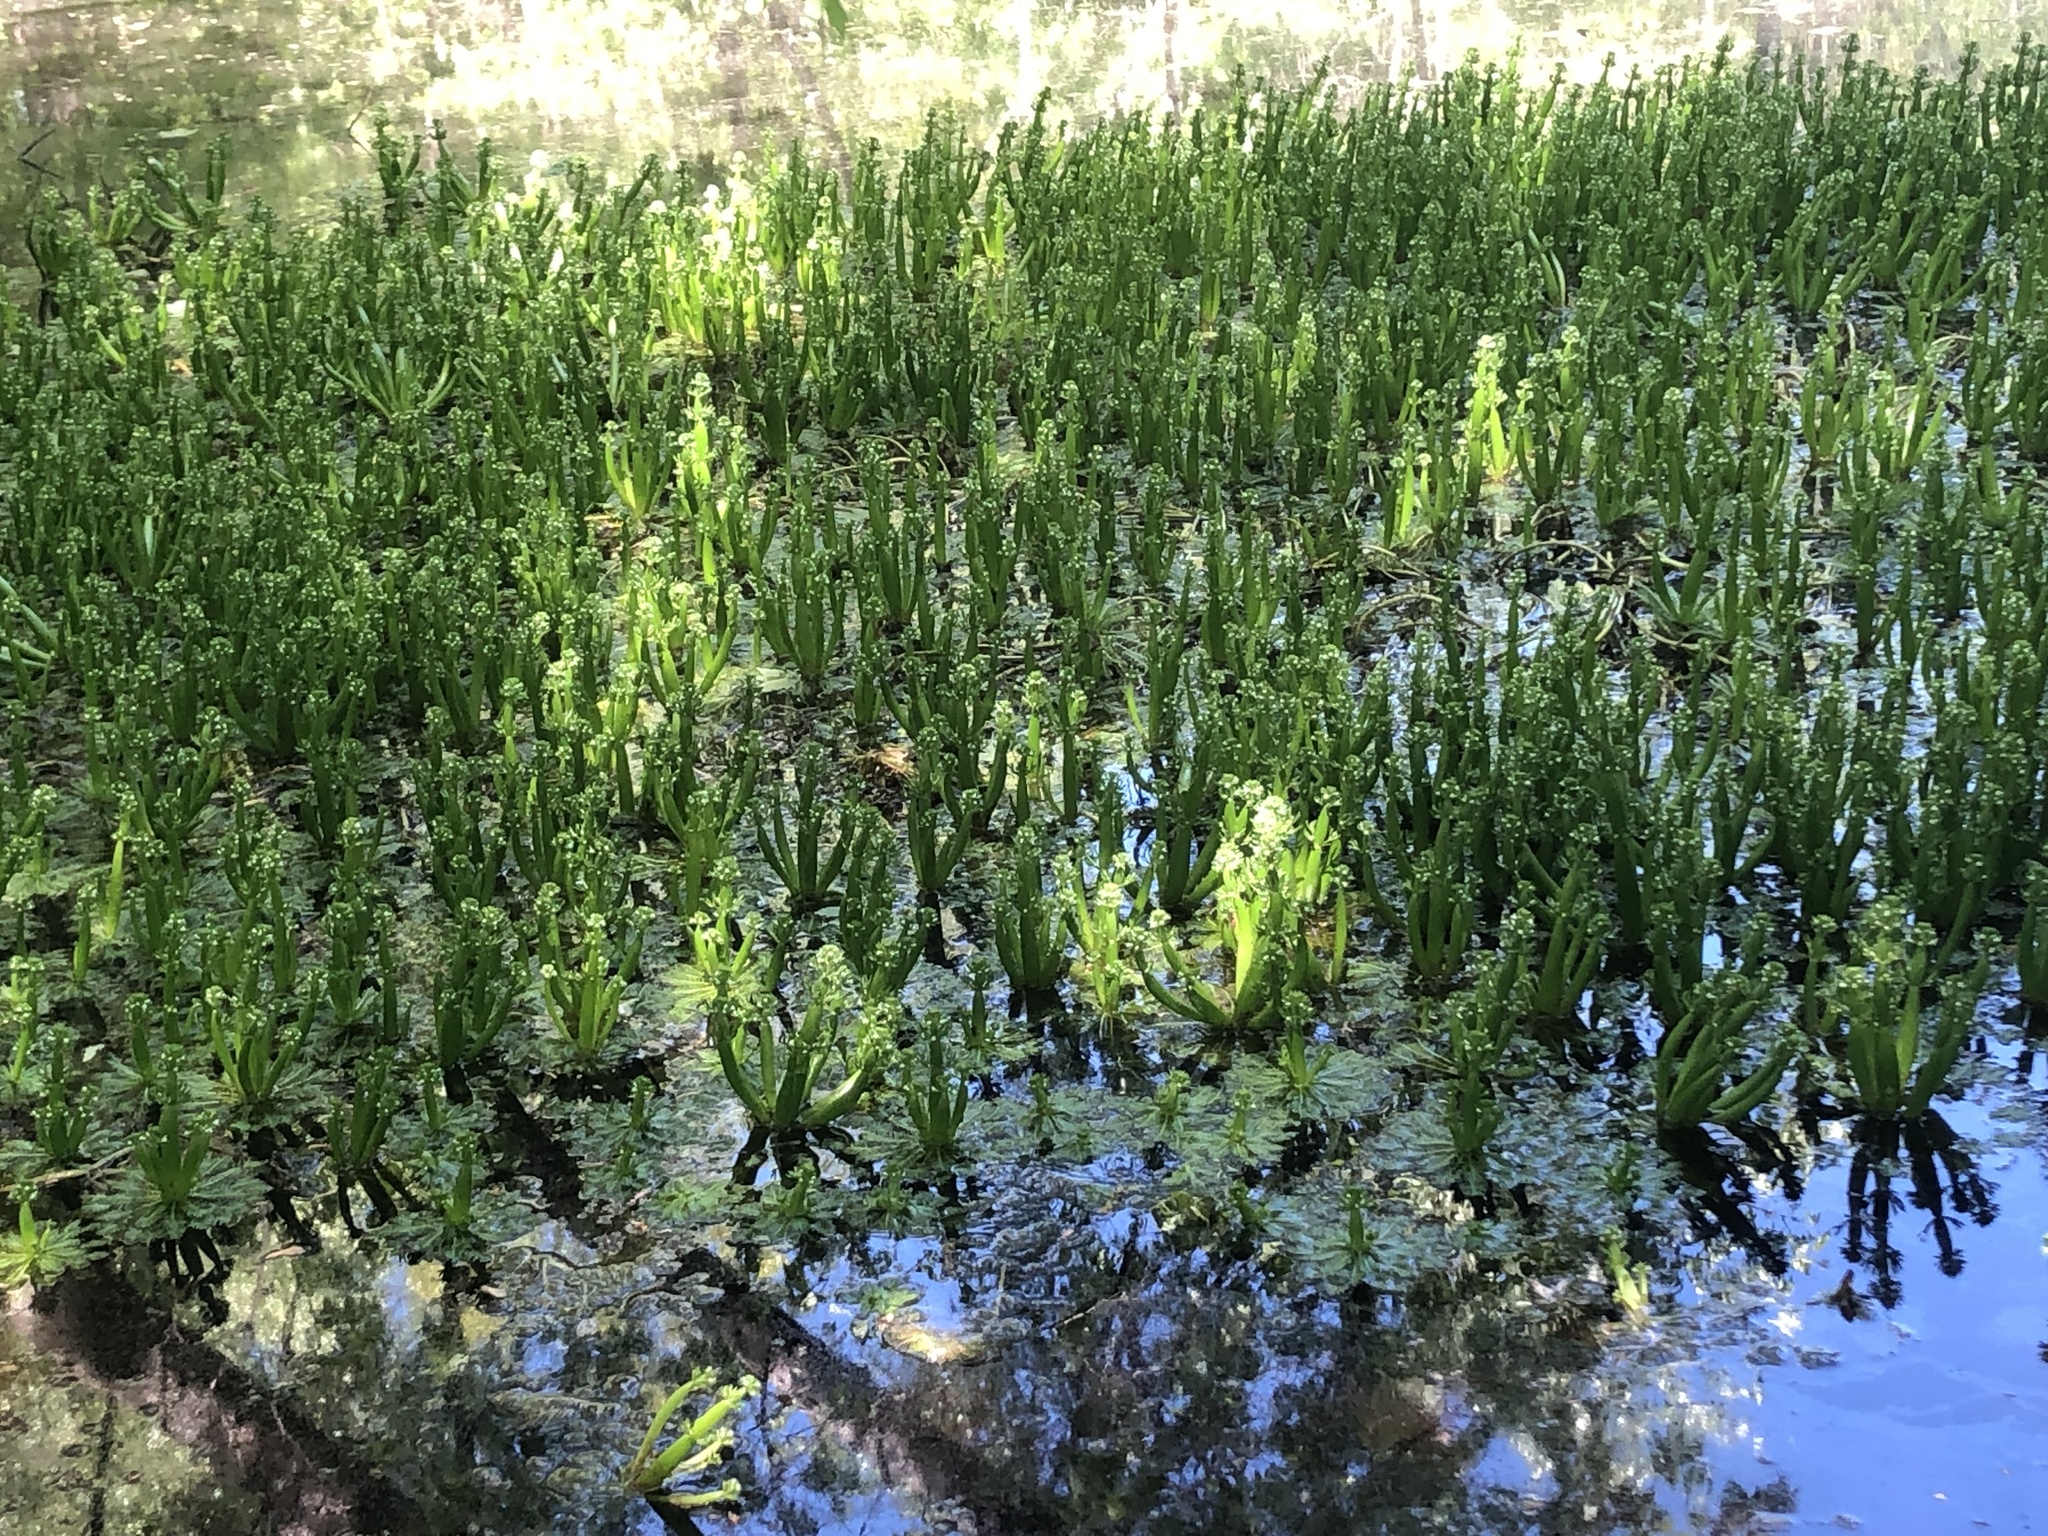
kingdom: Plantae
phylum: Tracheophyta
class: Magnoliopsida
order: Ericales
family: Primulaceae
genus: Hottonia
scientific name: Hottonia inflata
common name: American featherfoil
